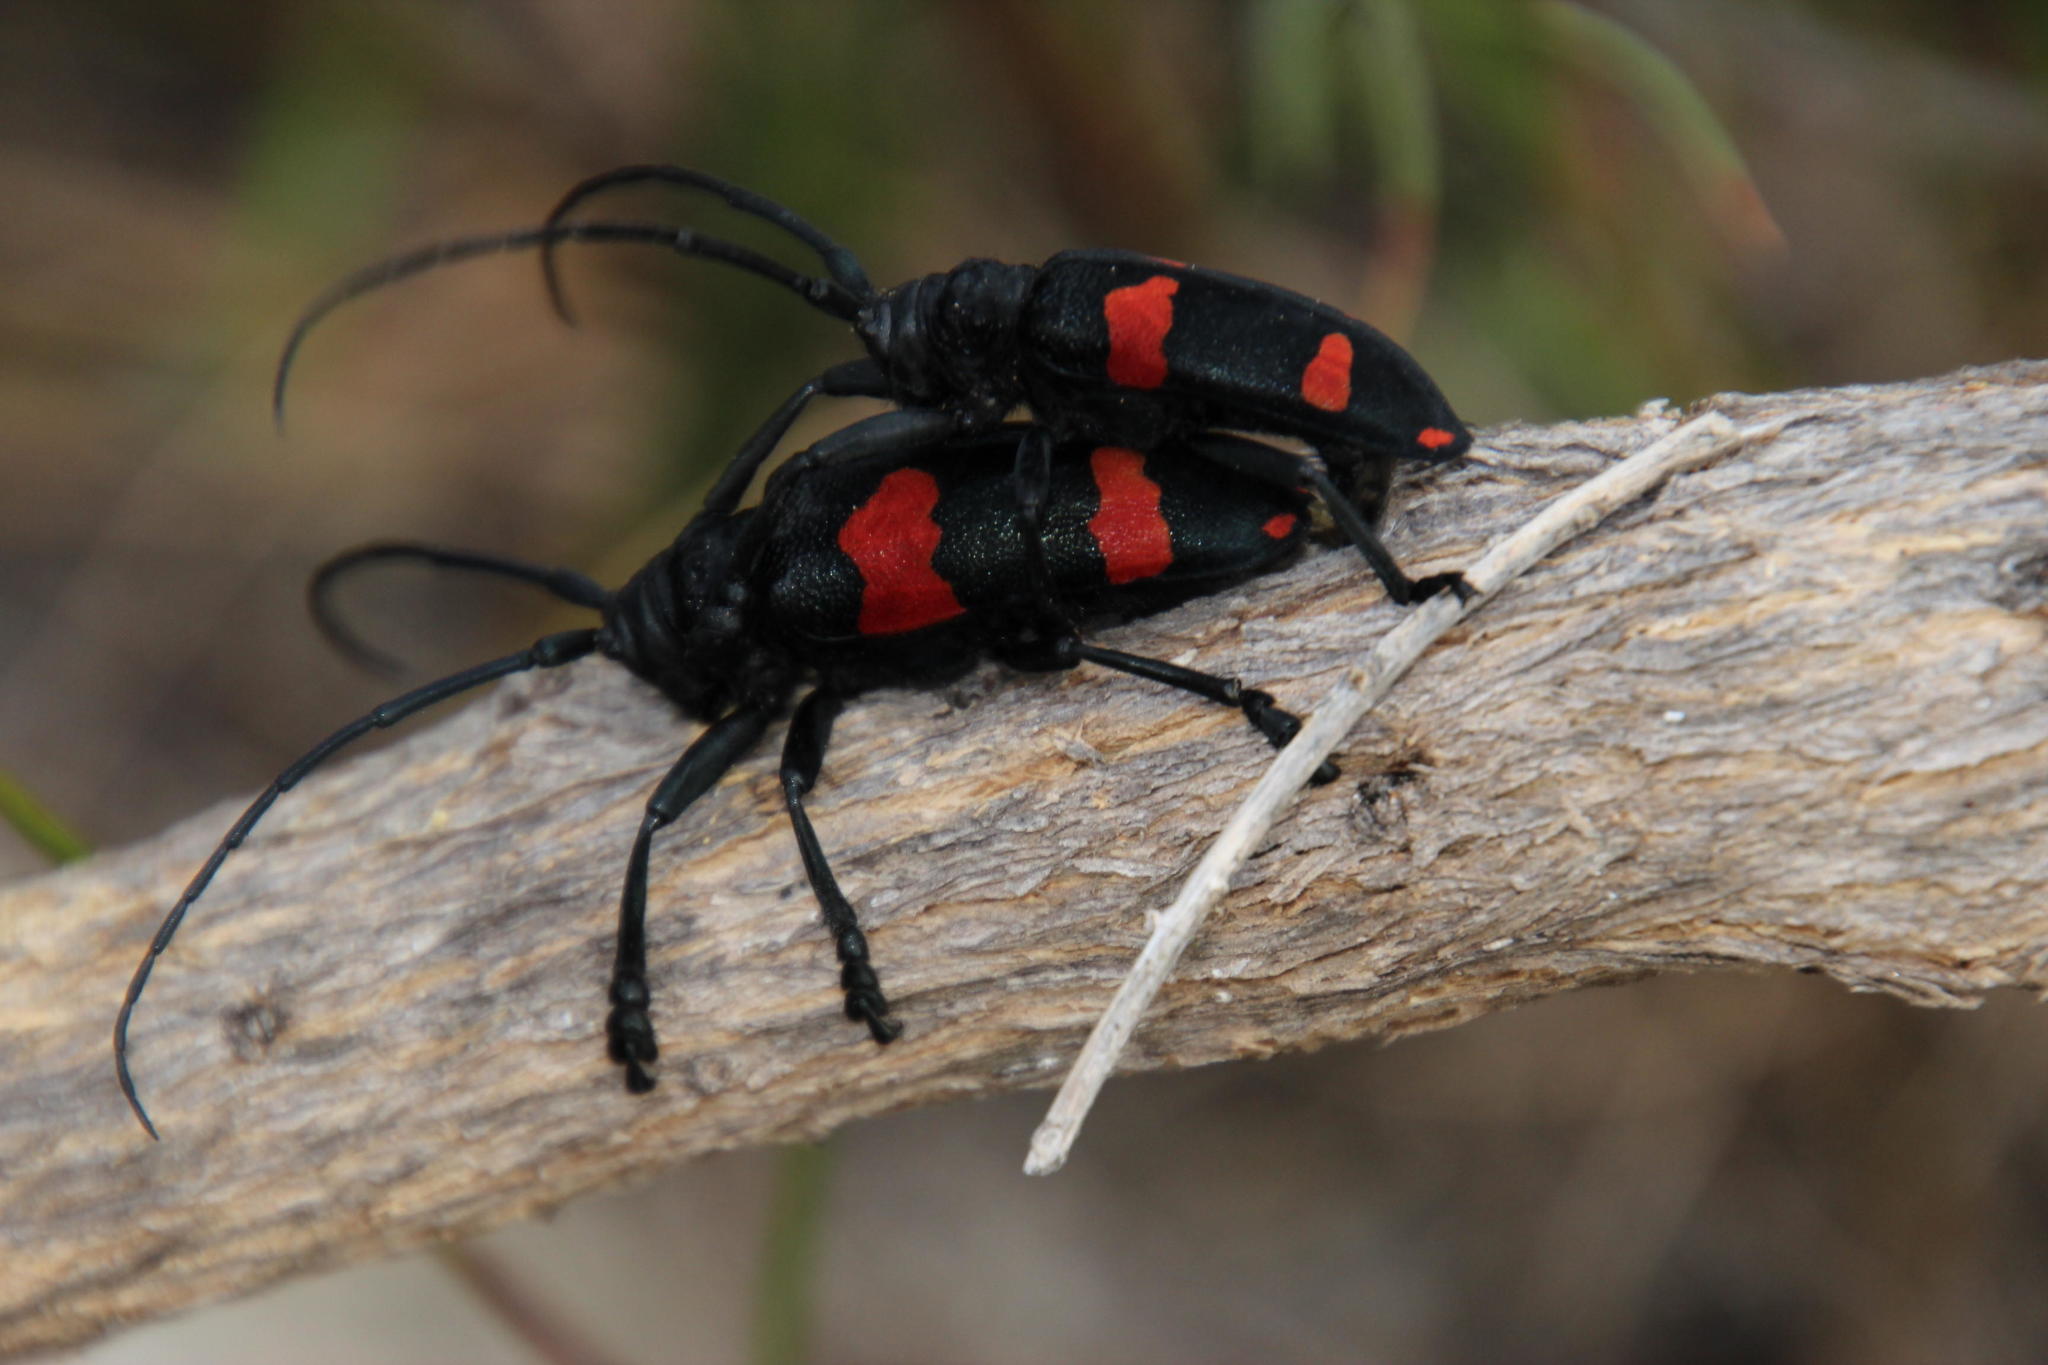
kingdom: Animalia
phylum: Arthropoda
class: Insecta
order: Coleoptera
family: Cerambycidae
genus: Ceroplesis
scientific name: Ceroplesis aethiops
